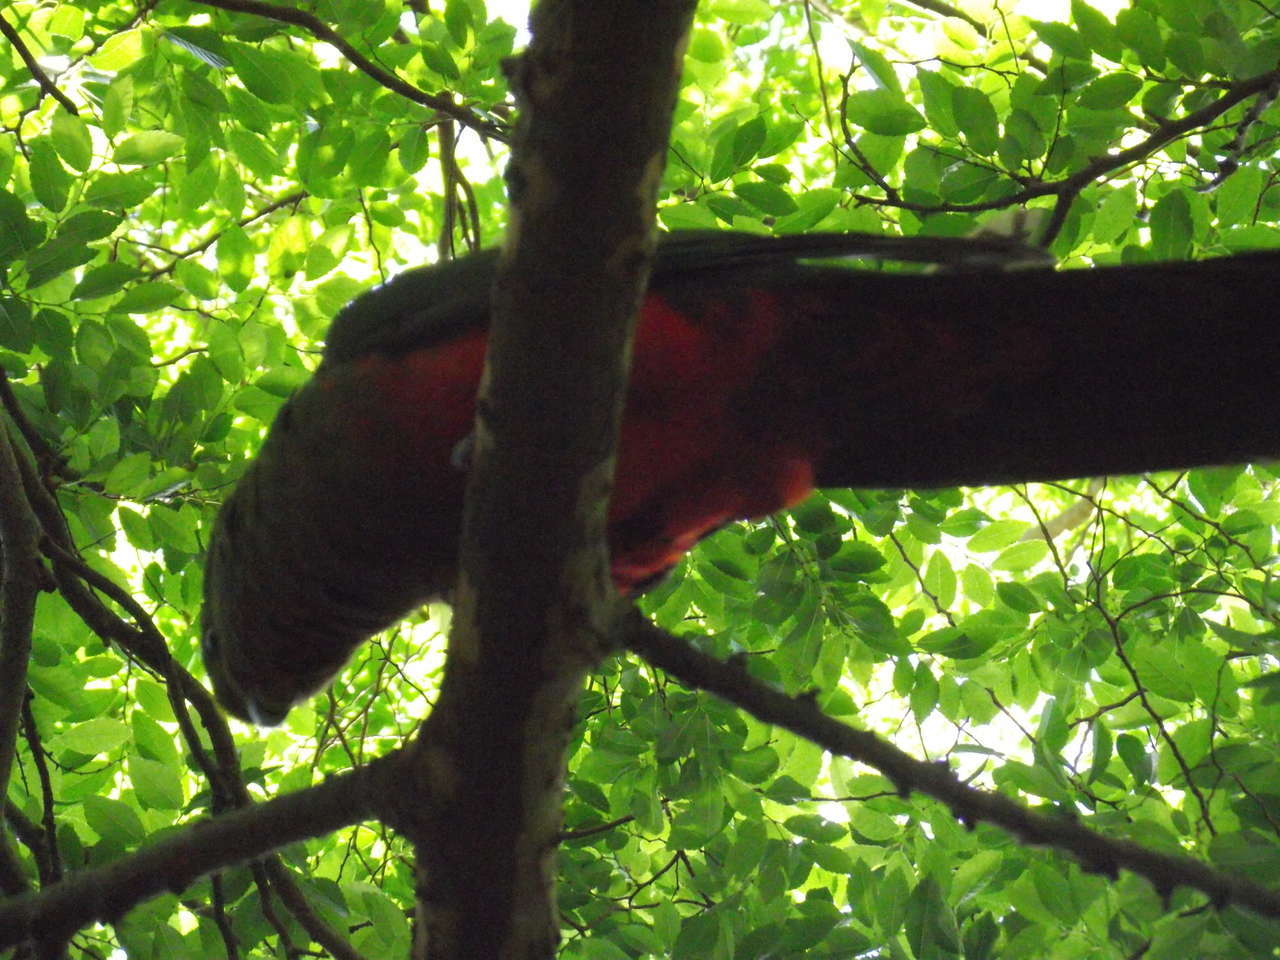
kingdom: Animalia
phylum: Chordata
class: Aves
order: Psittaciformes
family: Psittacidae
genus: Alisterus
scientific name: Alisterus scapularis
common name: Australian king parrot
